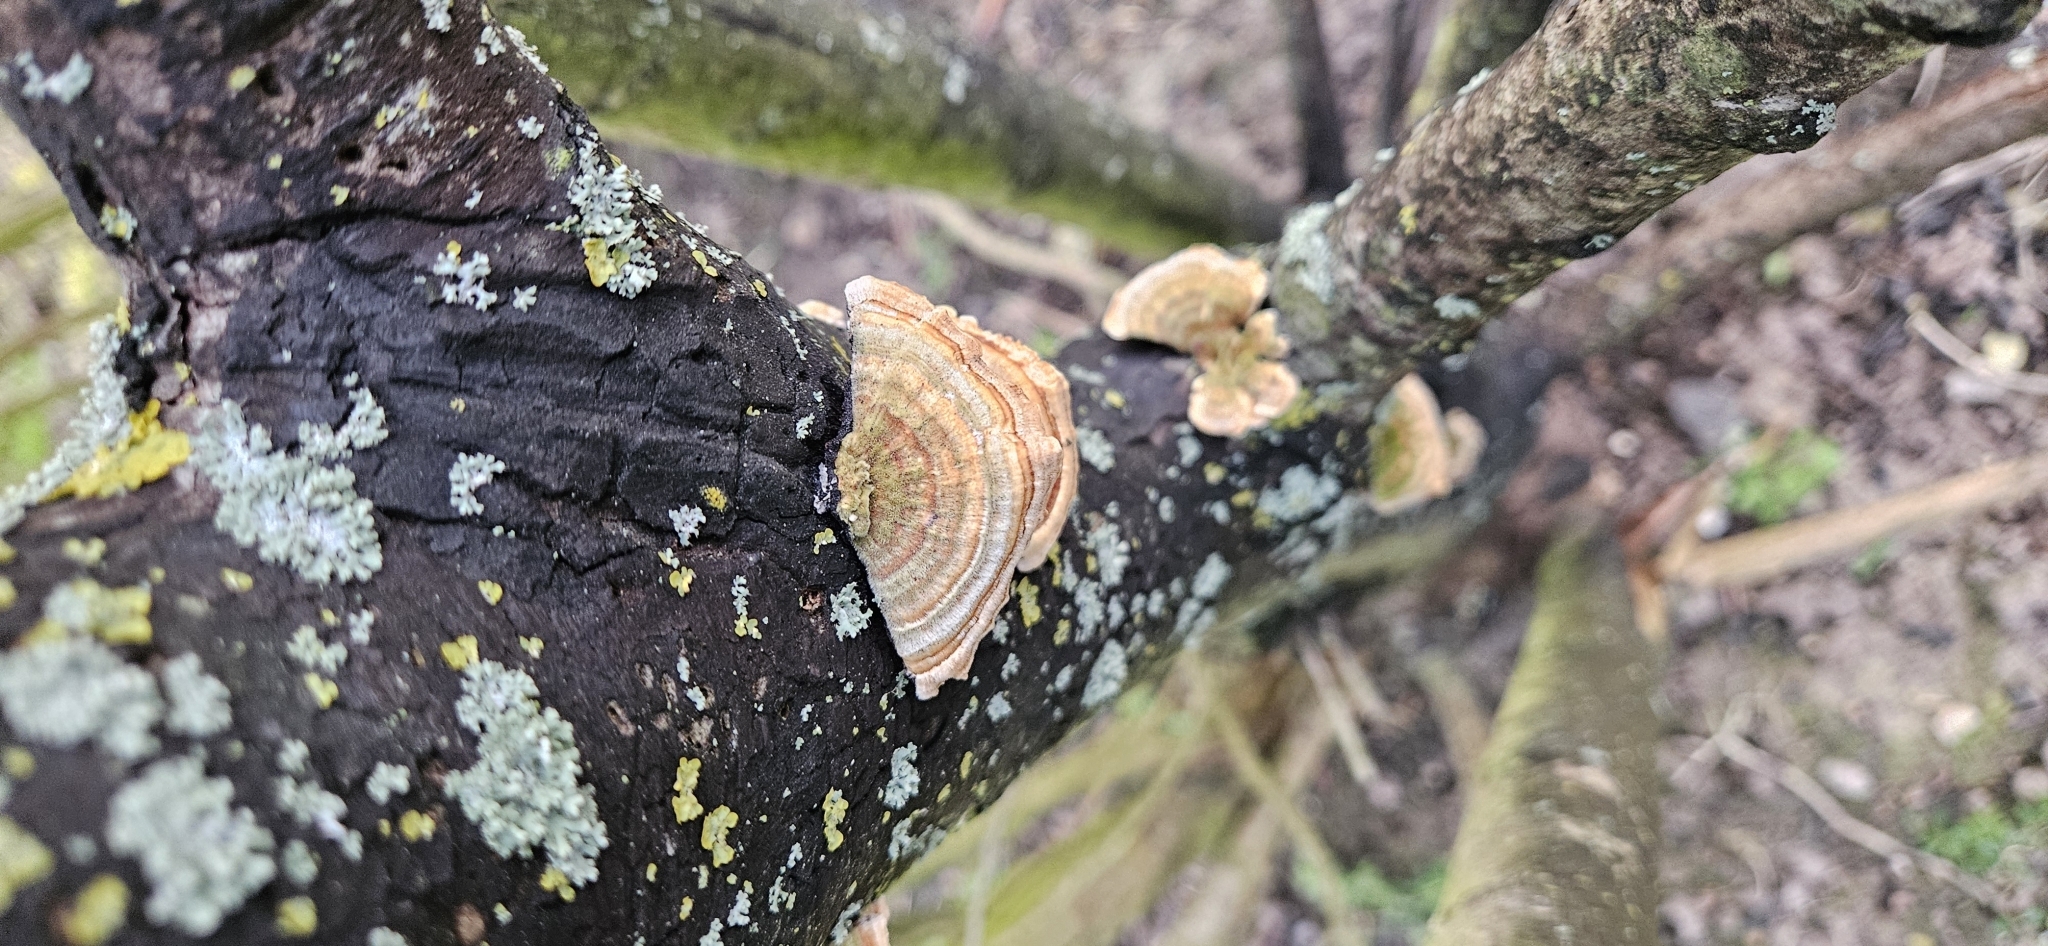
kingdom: Fungi
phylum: Basidiomycota
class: Agaricomycetes
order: Polyporales
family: Polyporaceae
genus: Trametes
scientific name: Trametes versicolor
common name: Turkeytail
